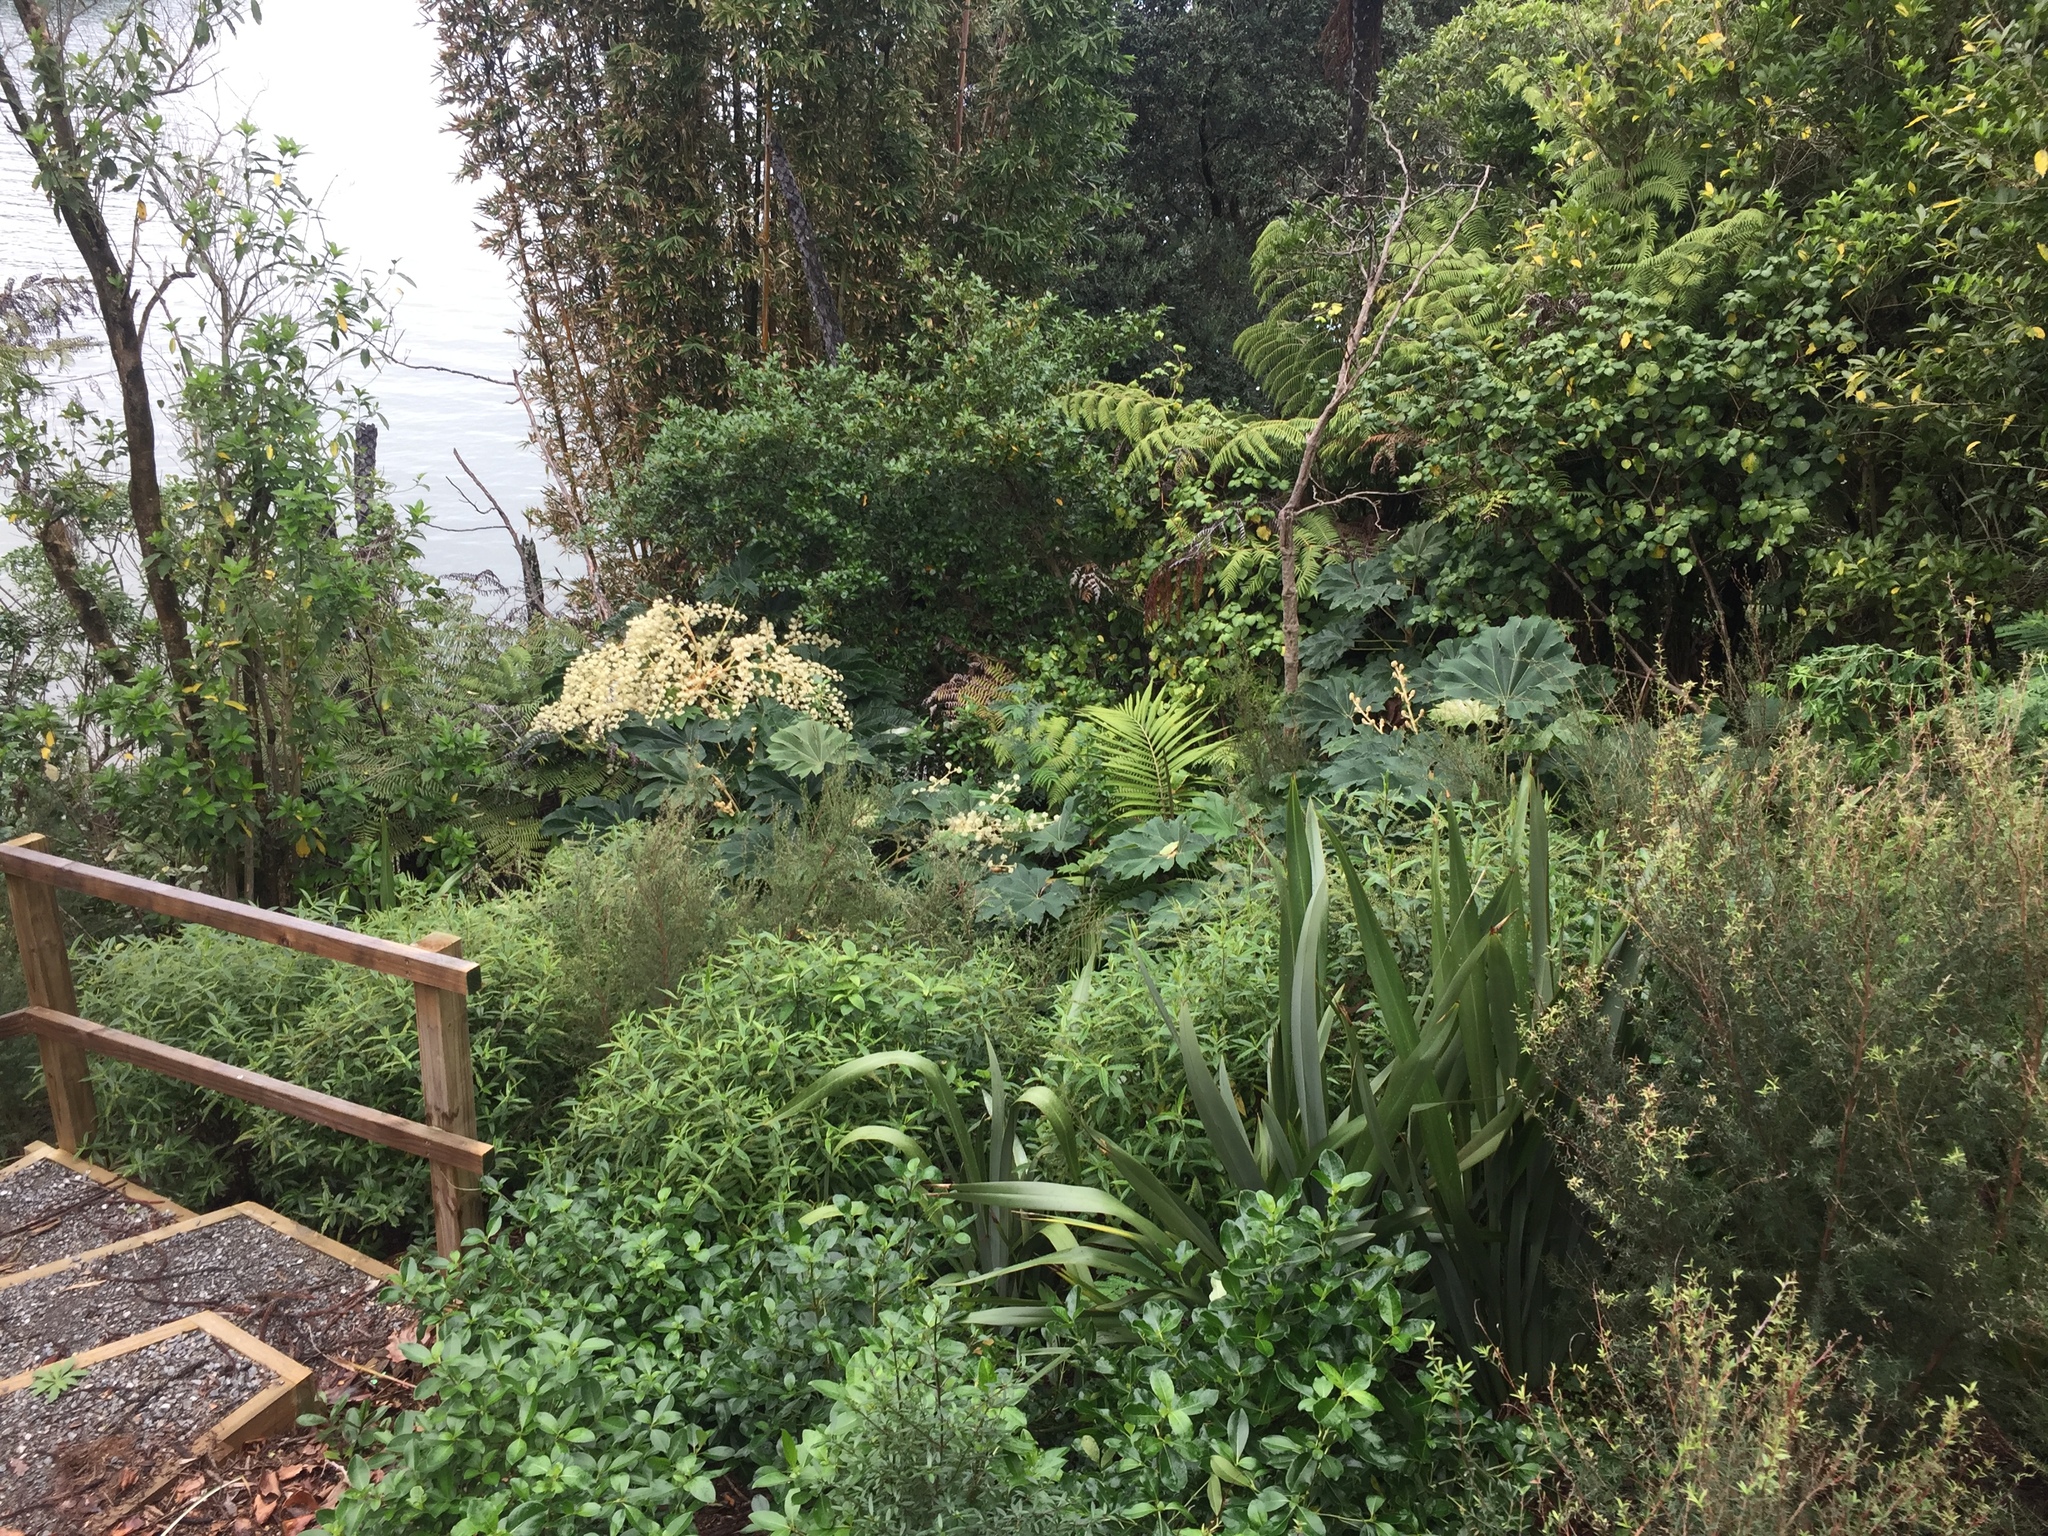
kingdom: Plantae
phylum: Tracheophyta
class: Magnoliopsida
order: Apiales
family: Araliaceae
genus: Tetrapanax
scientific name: Tetrapanax papyrifer
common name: Rice-paper plant
